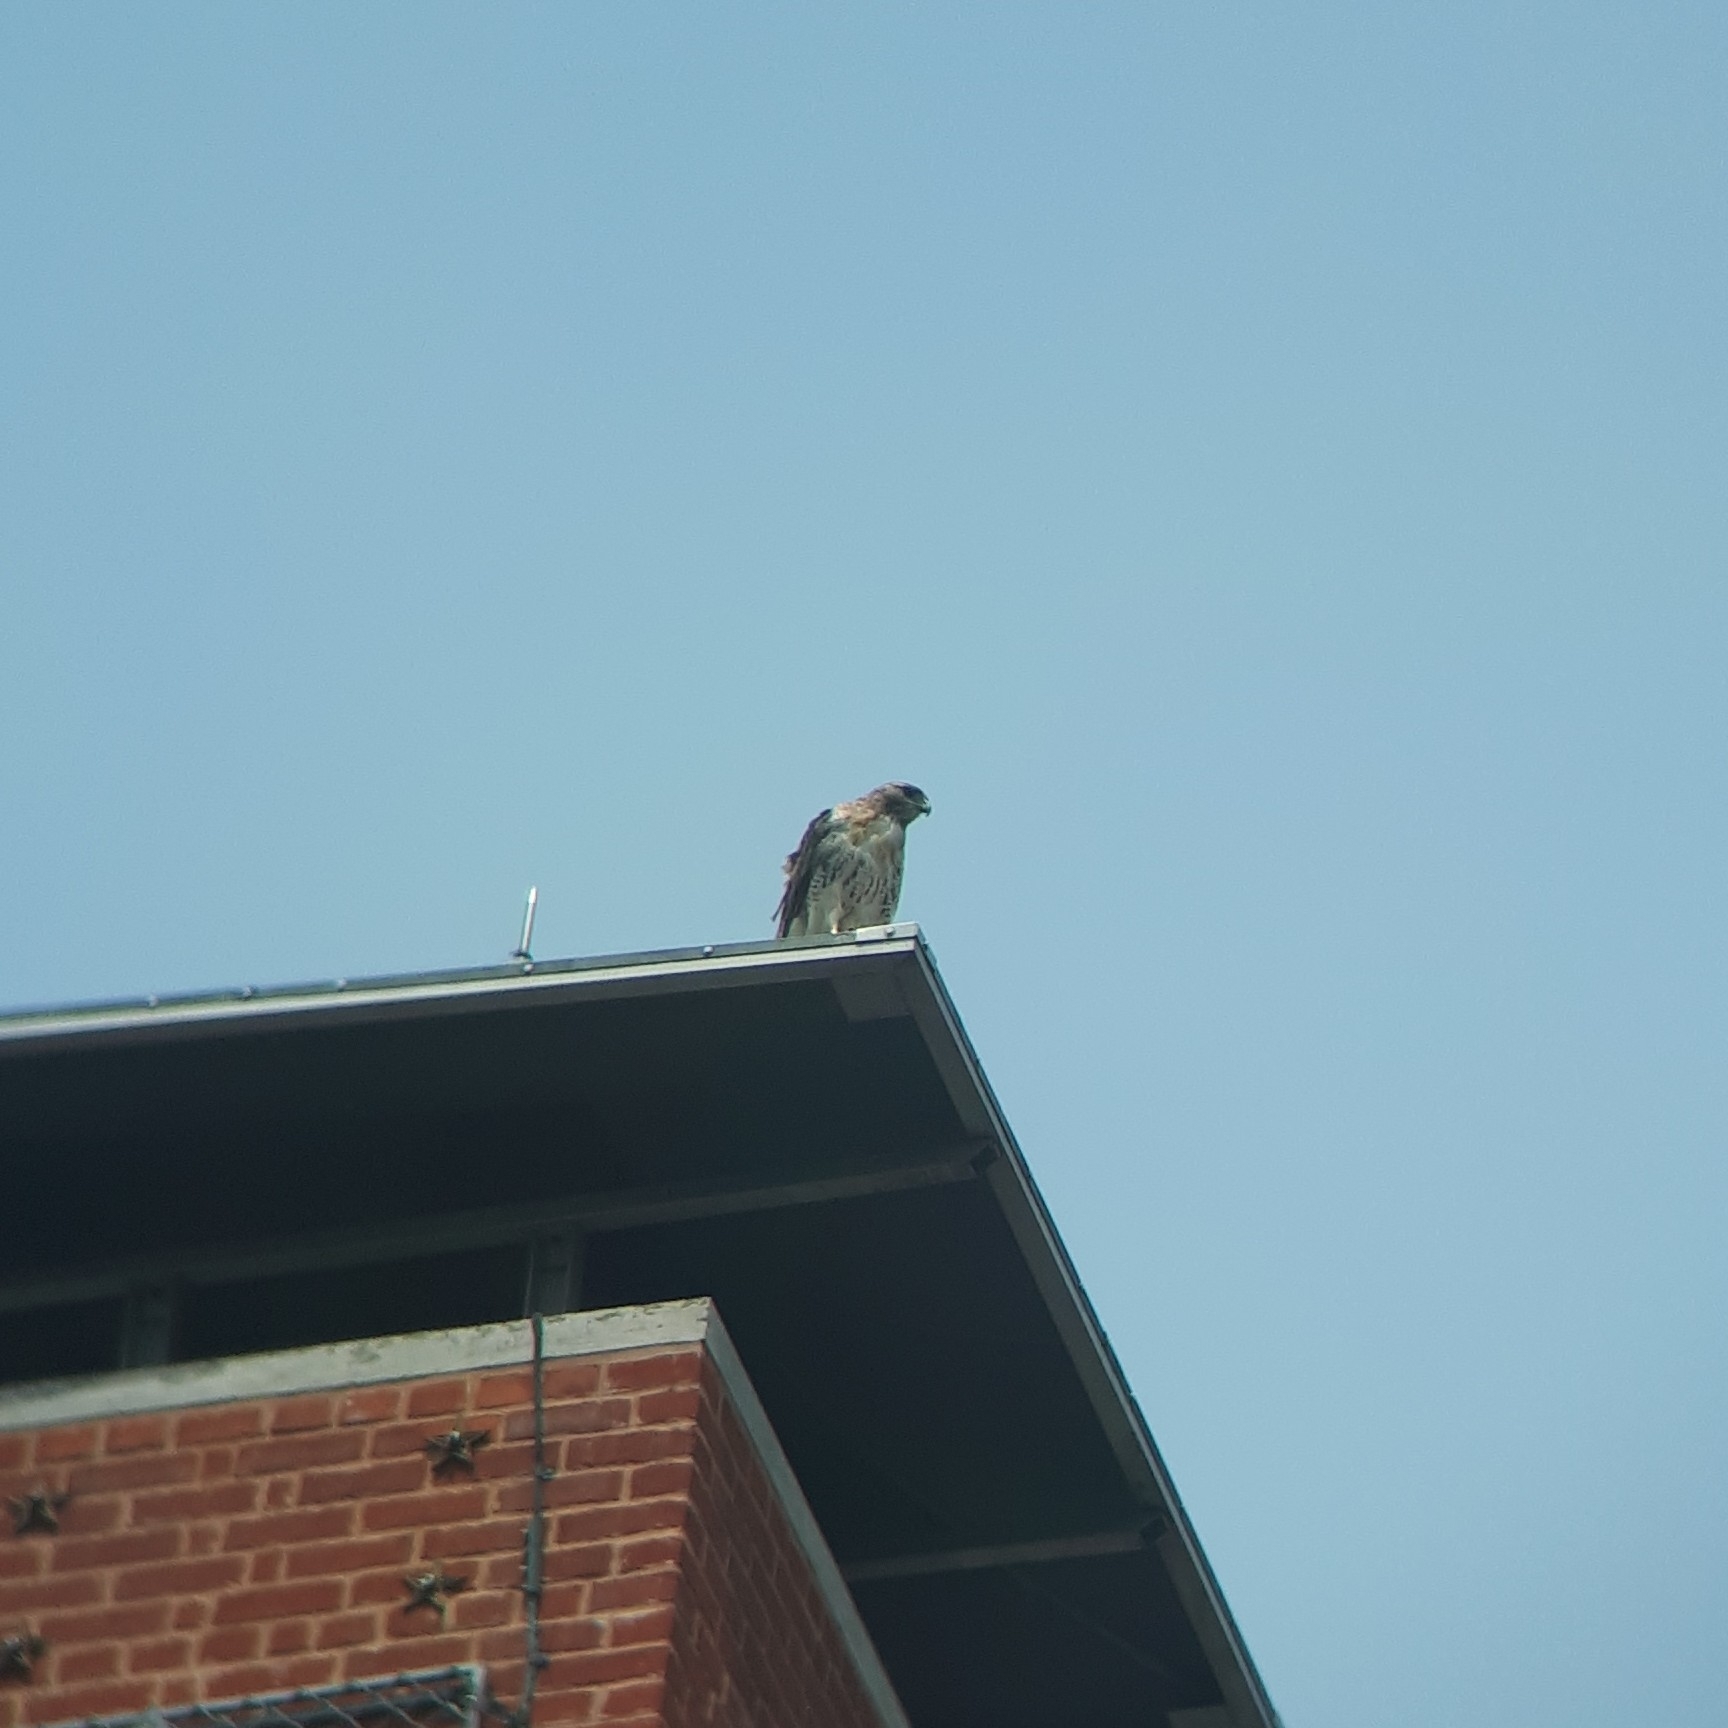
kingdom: Animalia
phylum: Chordata
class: Aves
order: Accipitriformes
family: Accipitridae
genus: Buteo
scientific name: Buteo jamaicensis
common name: Red-tailed hawk
